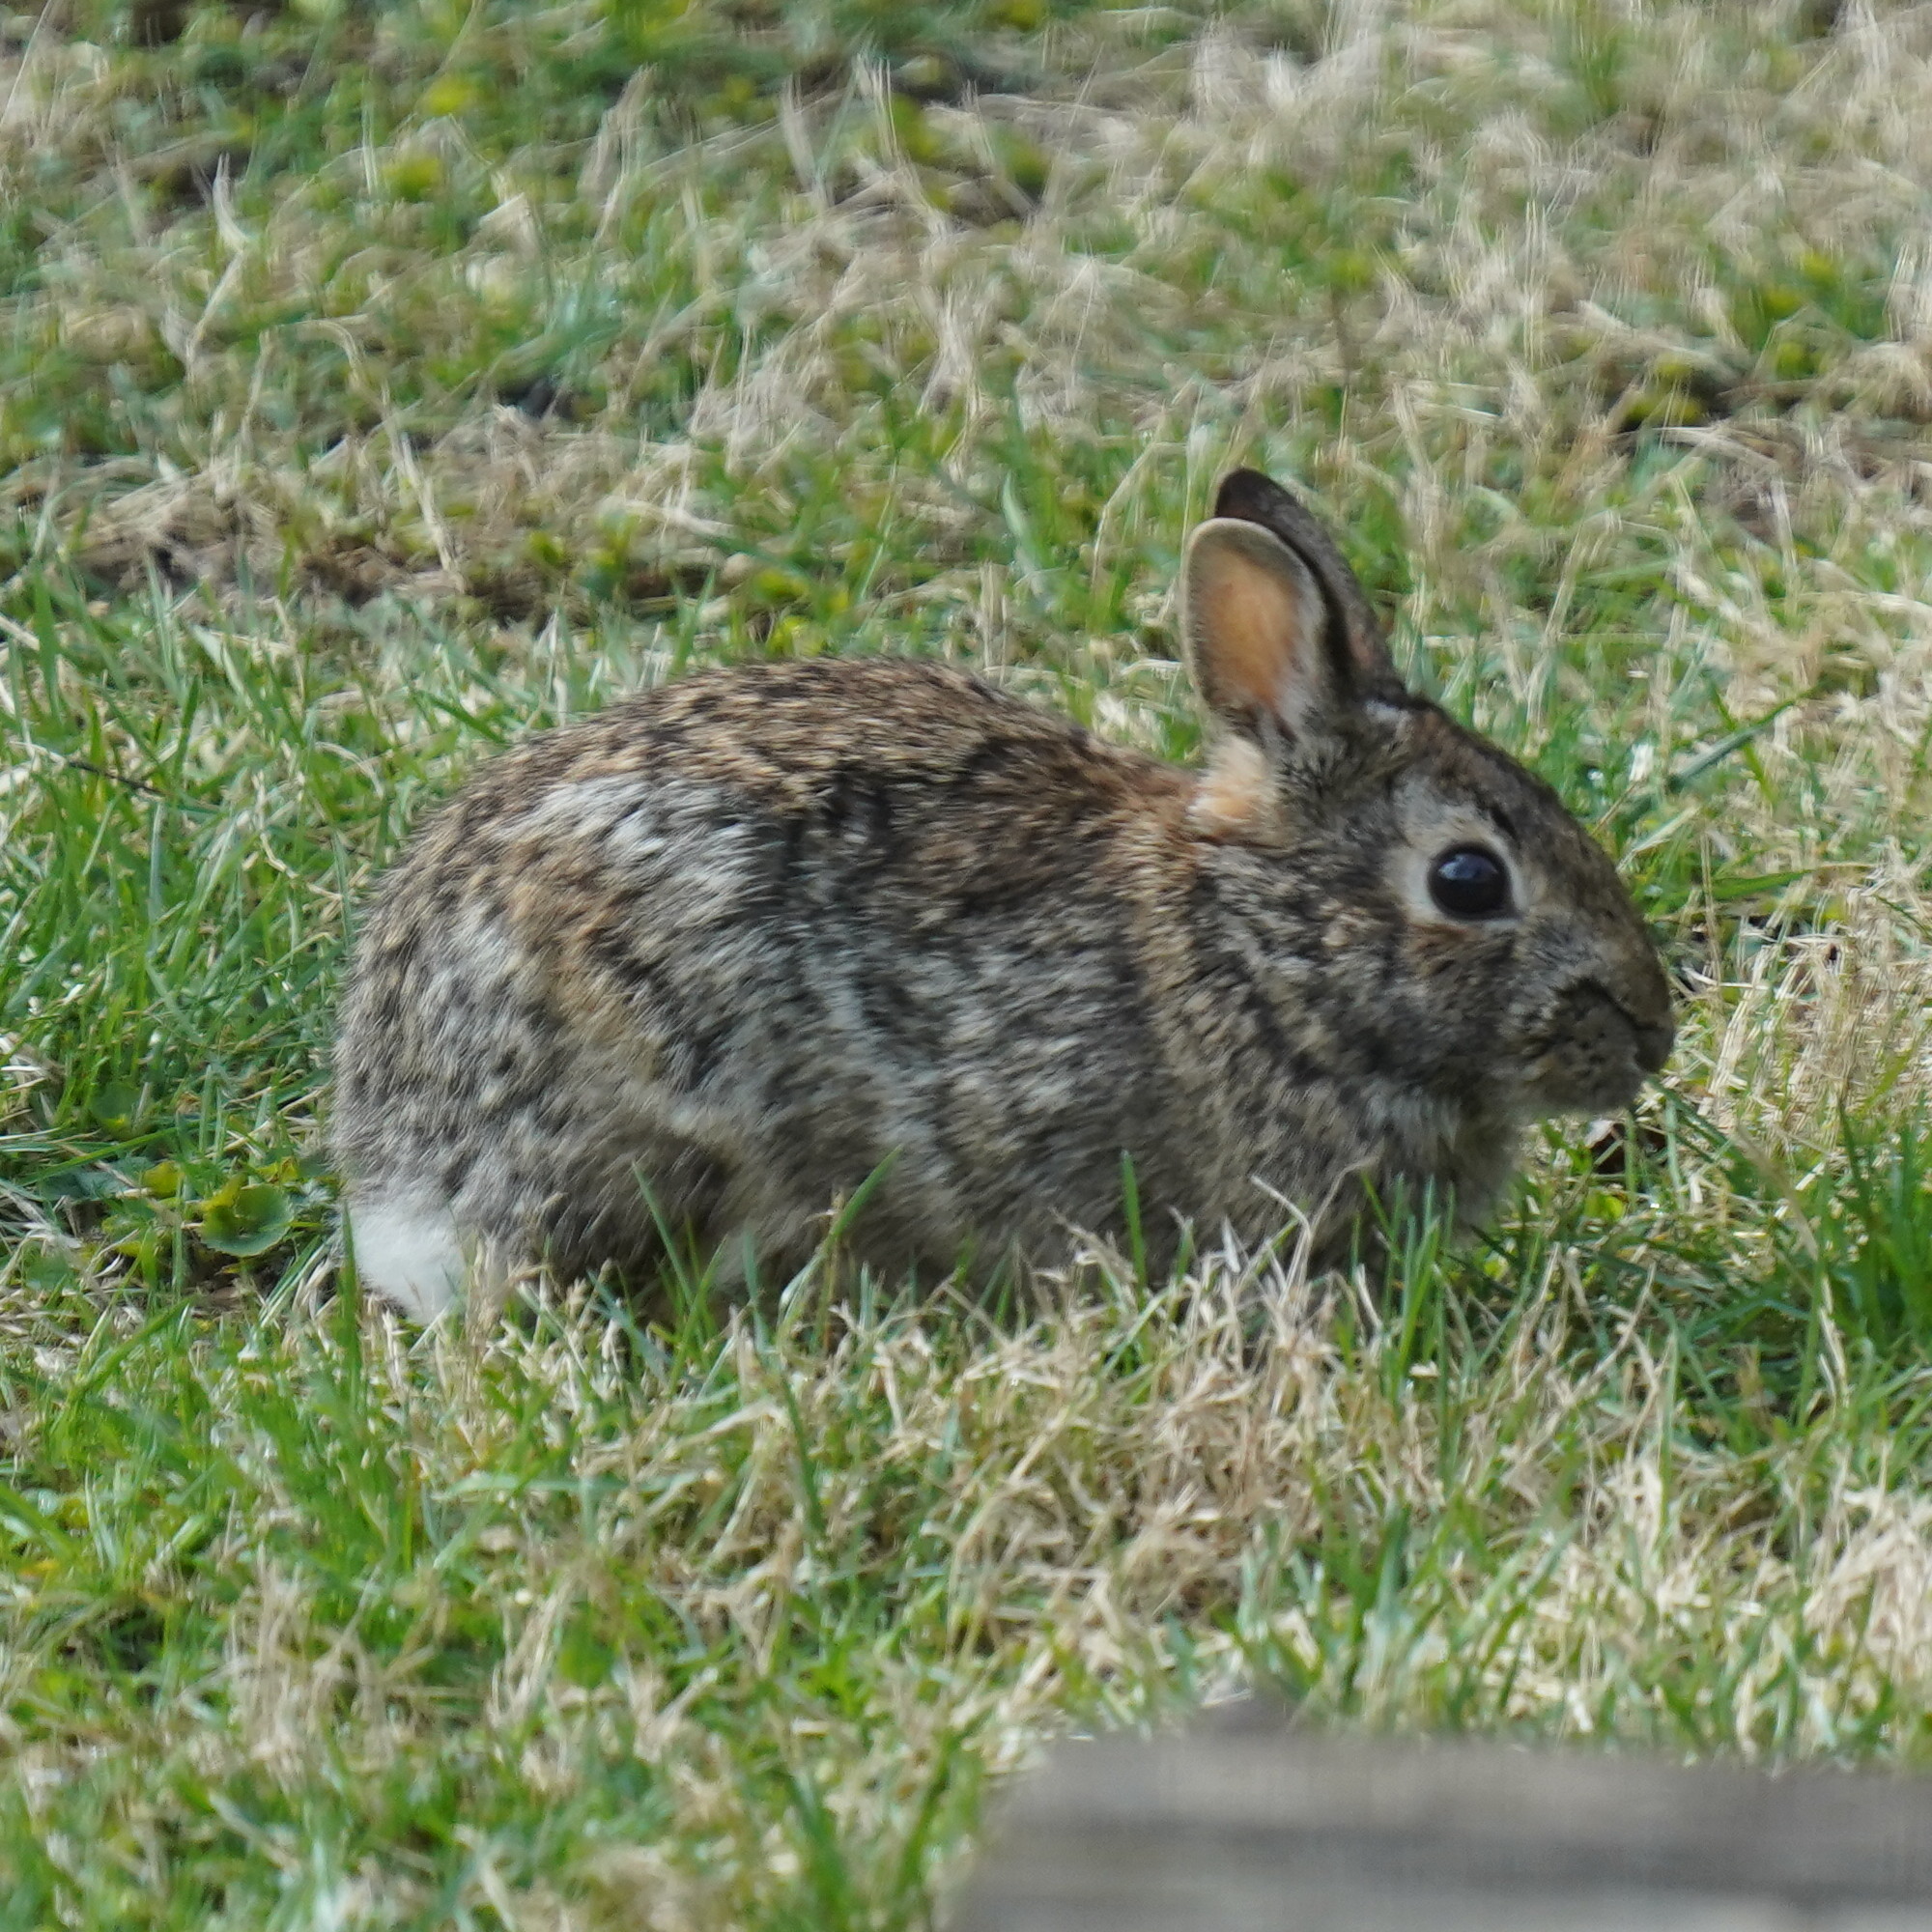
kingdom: Animalia
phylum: Chordata
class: Mammalia
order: Lagomorpha
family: Leporidae
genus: Sylvilagus
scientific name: Sylvilagus floridanus
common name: Eastern cottontail
